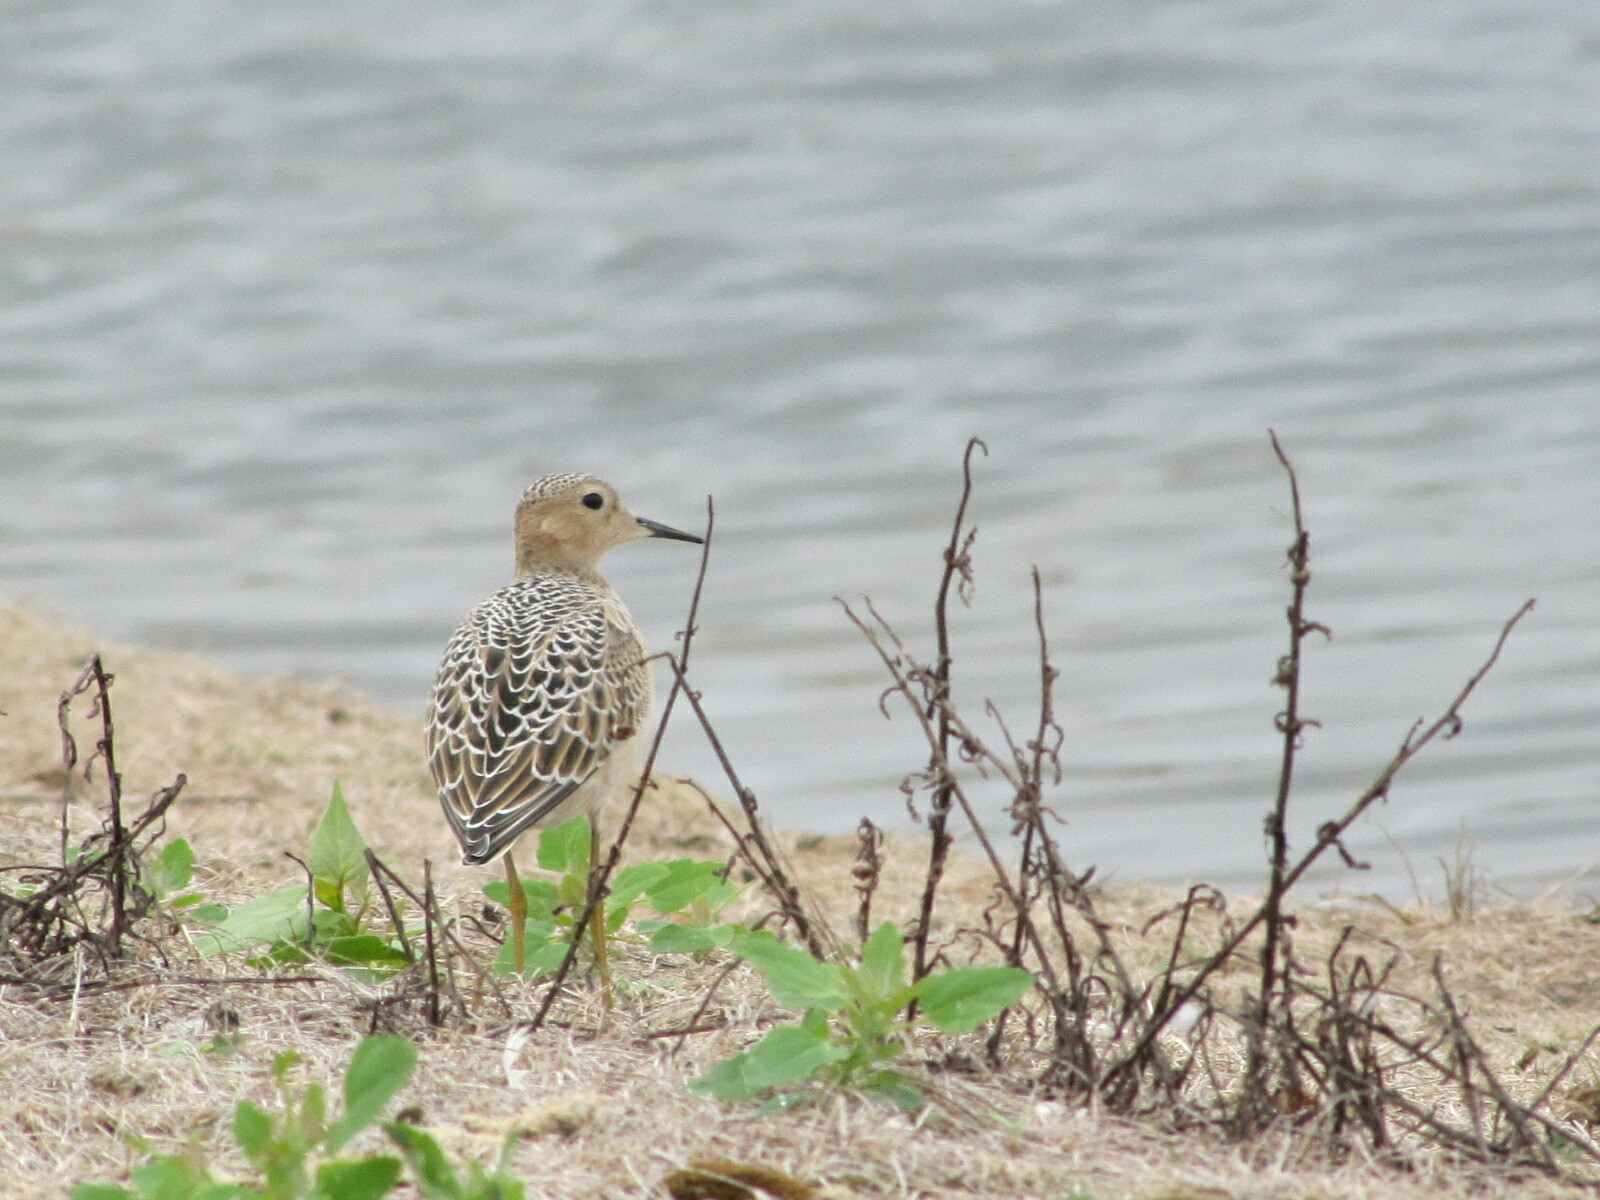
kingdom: Animalia
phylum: Chordata
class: Aves
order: Charadriiformes
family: Scolopacidae
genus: Calidris
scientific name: Calidris subruficollis
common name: Buff-breasted sandpiper
